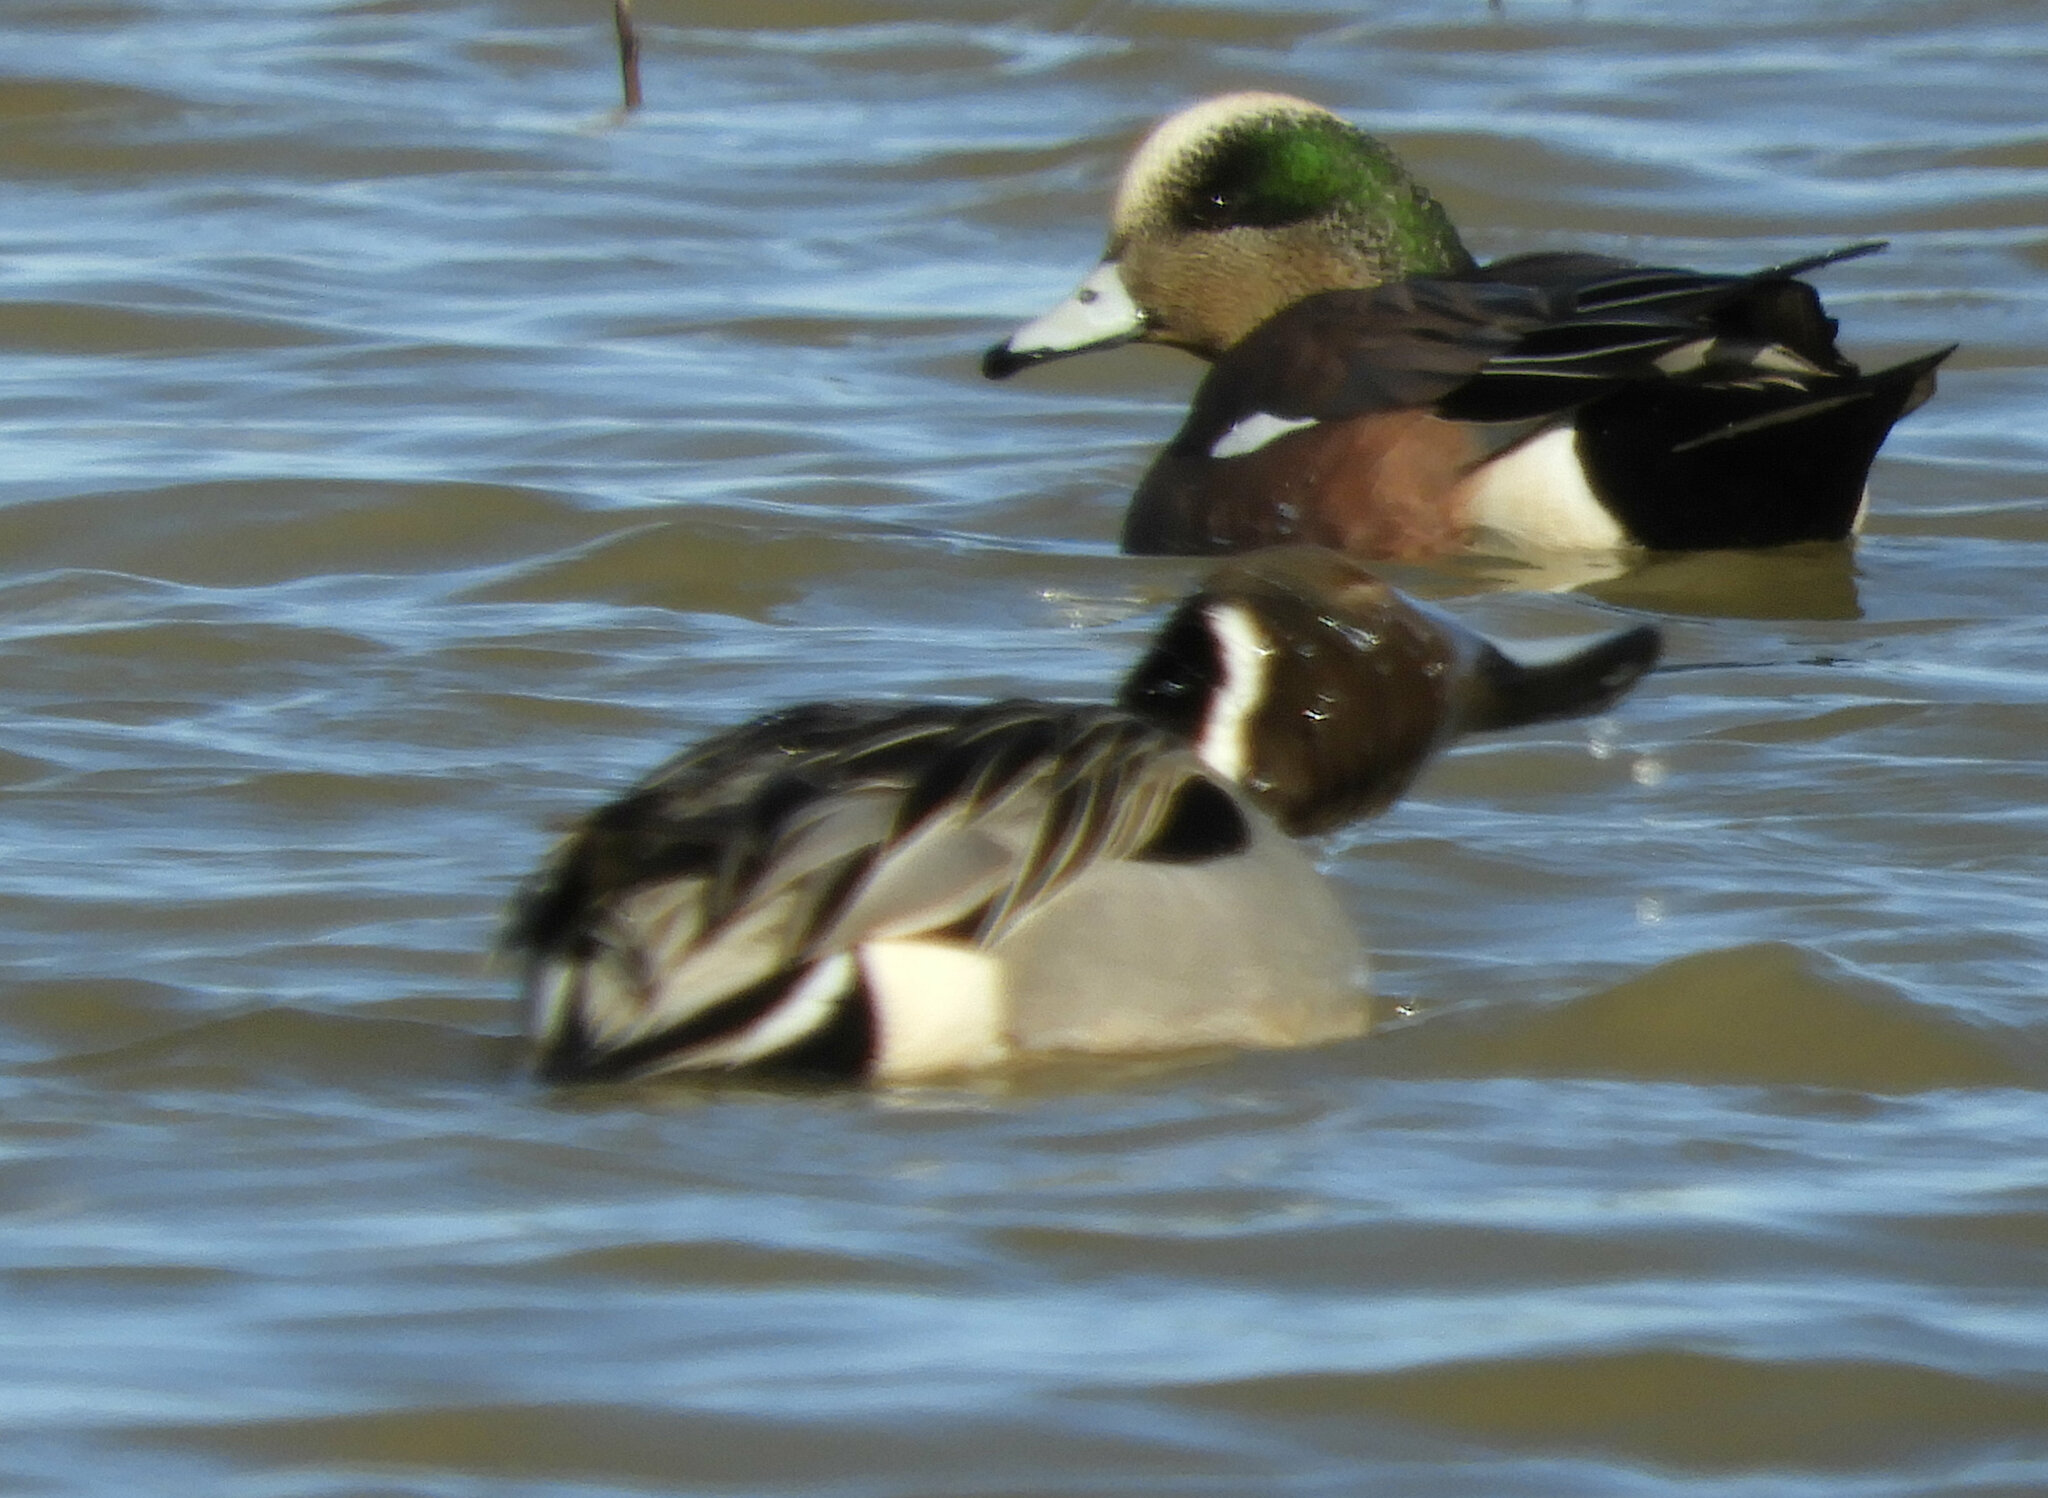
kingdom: Animalia
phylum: Chordata
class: Aves
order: Anseriformes
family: Anatidae
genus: Mareca
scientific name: Mareca americana
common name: American wigeon
